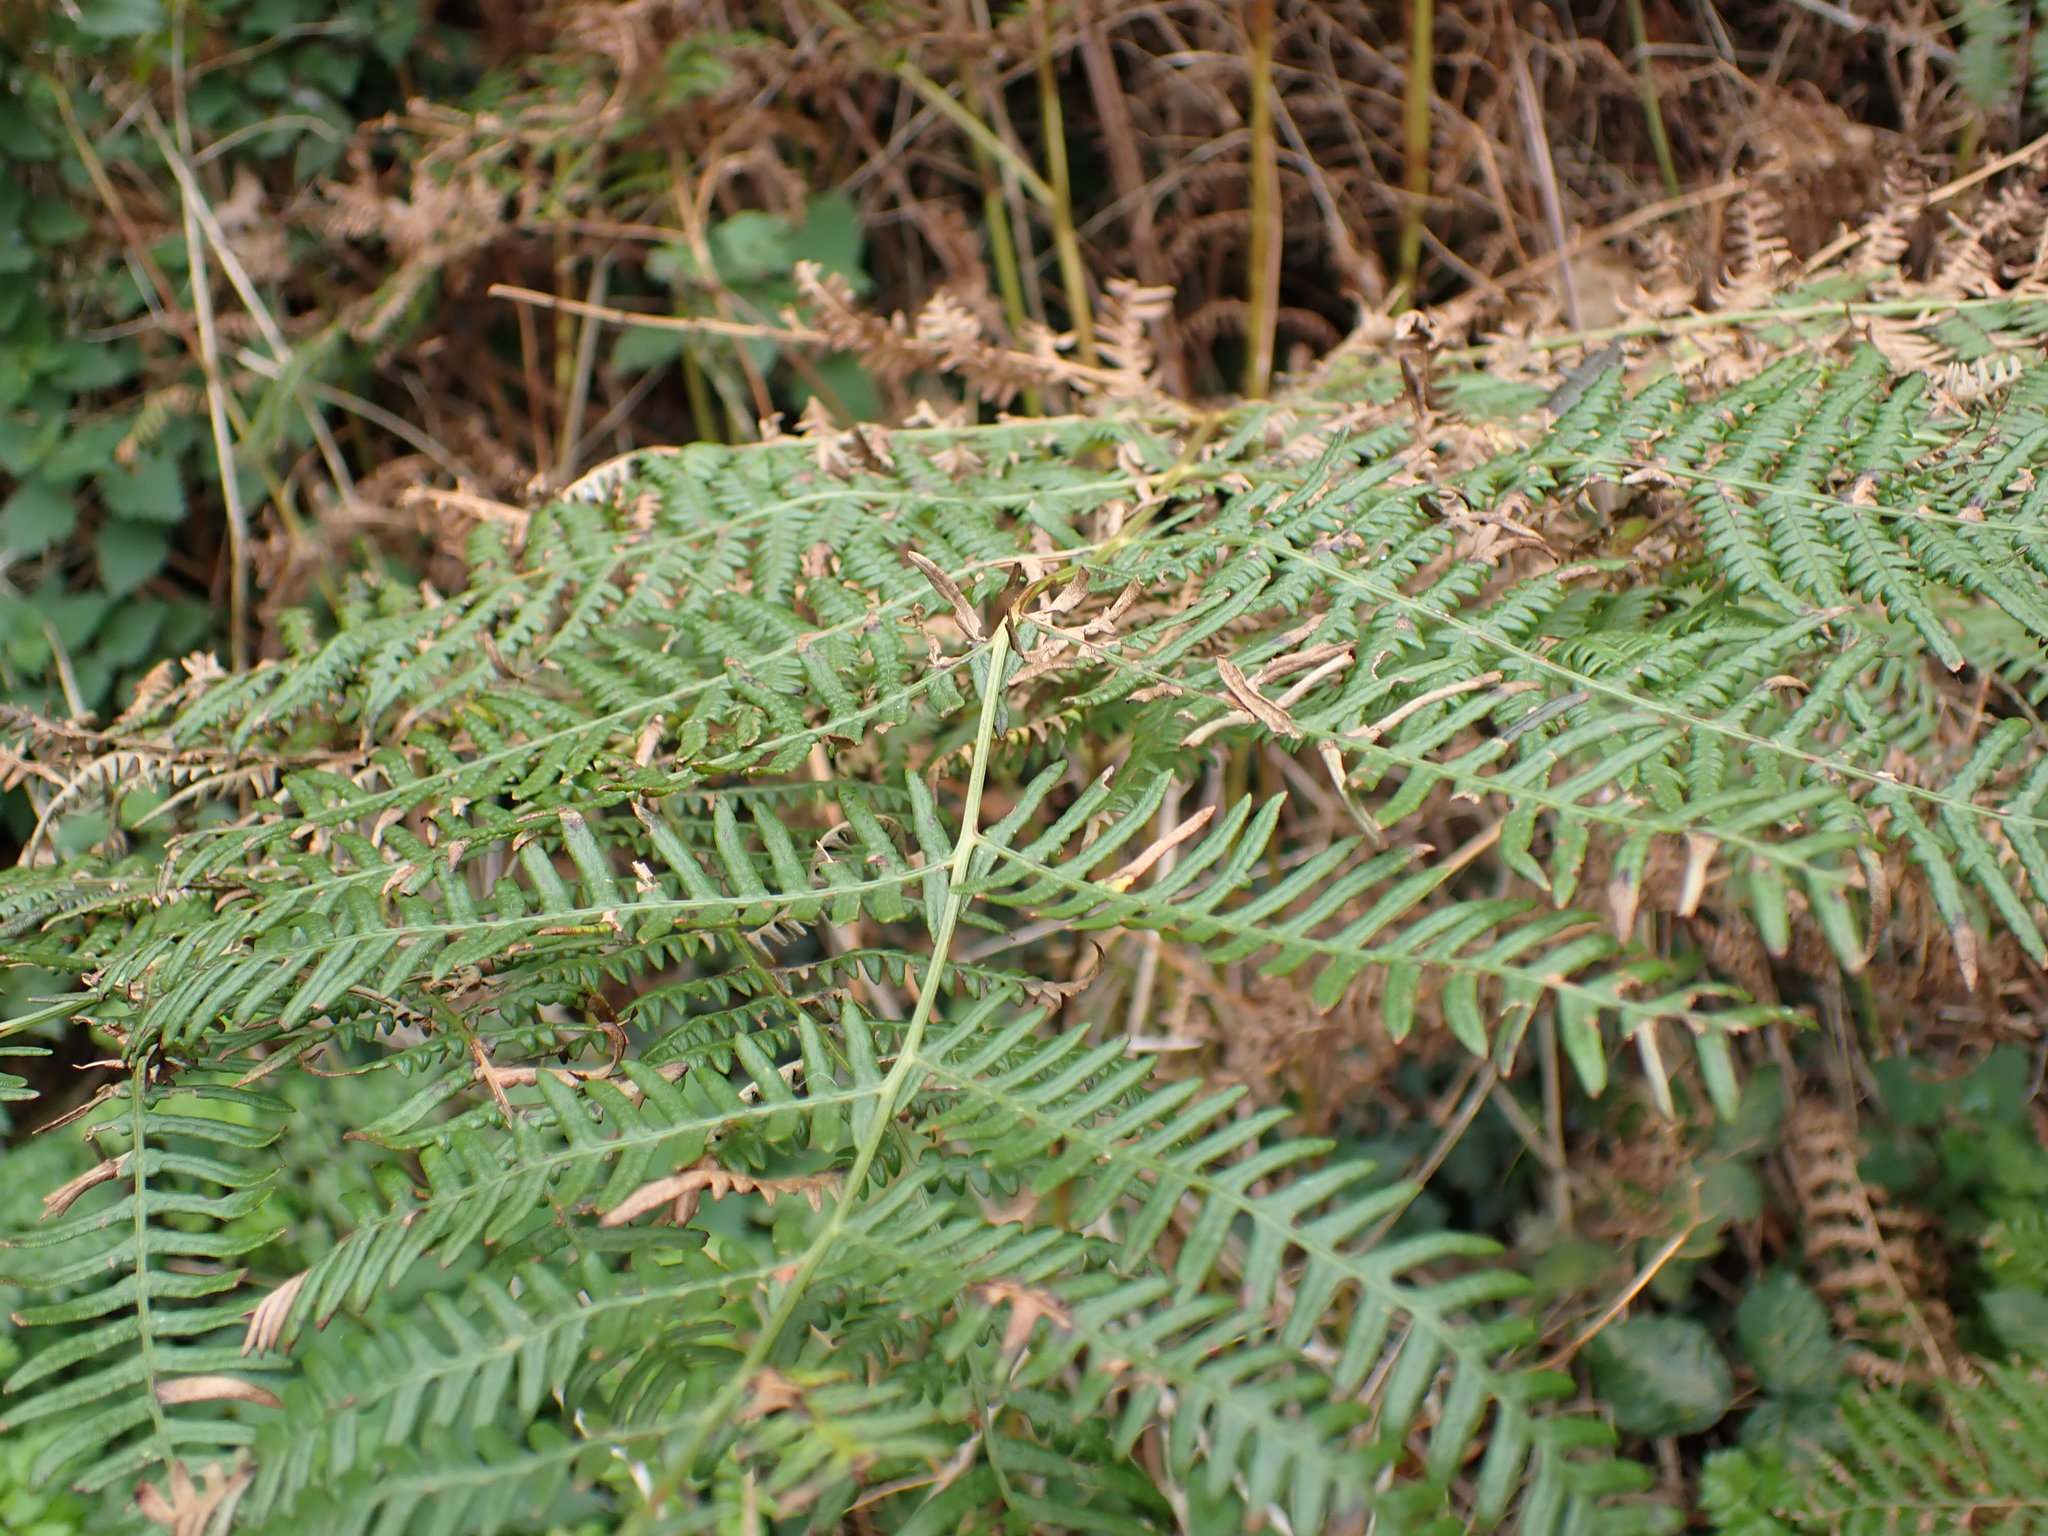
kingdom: Plantae
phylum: Tracheophyta
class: Polypodiopsida
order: Polypodiales
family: Dennstaedtiaceae
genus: Pteridium
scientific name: Pteridium aquilinum
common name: Bracken
